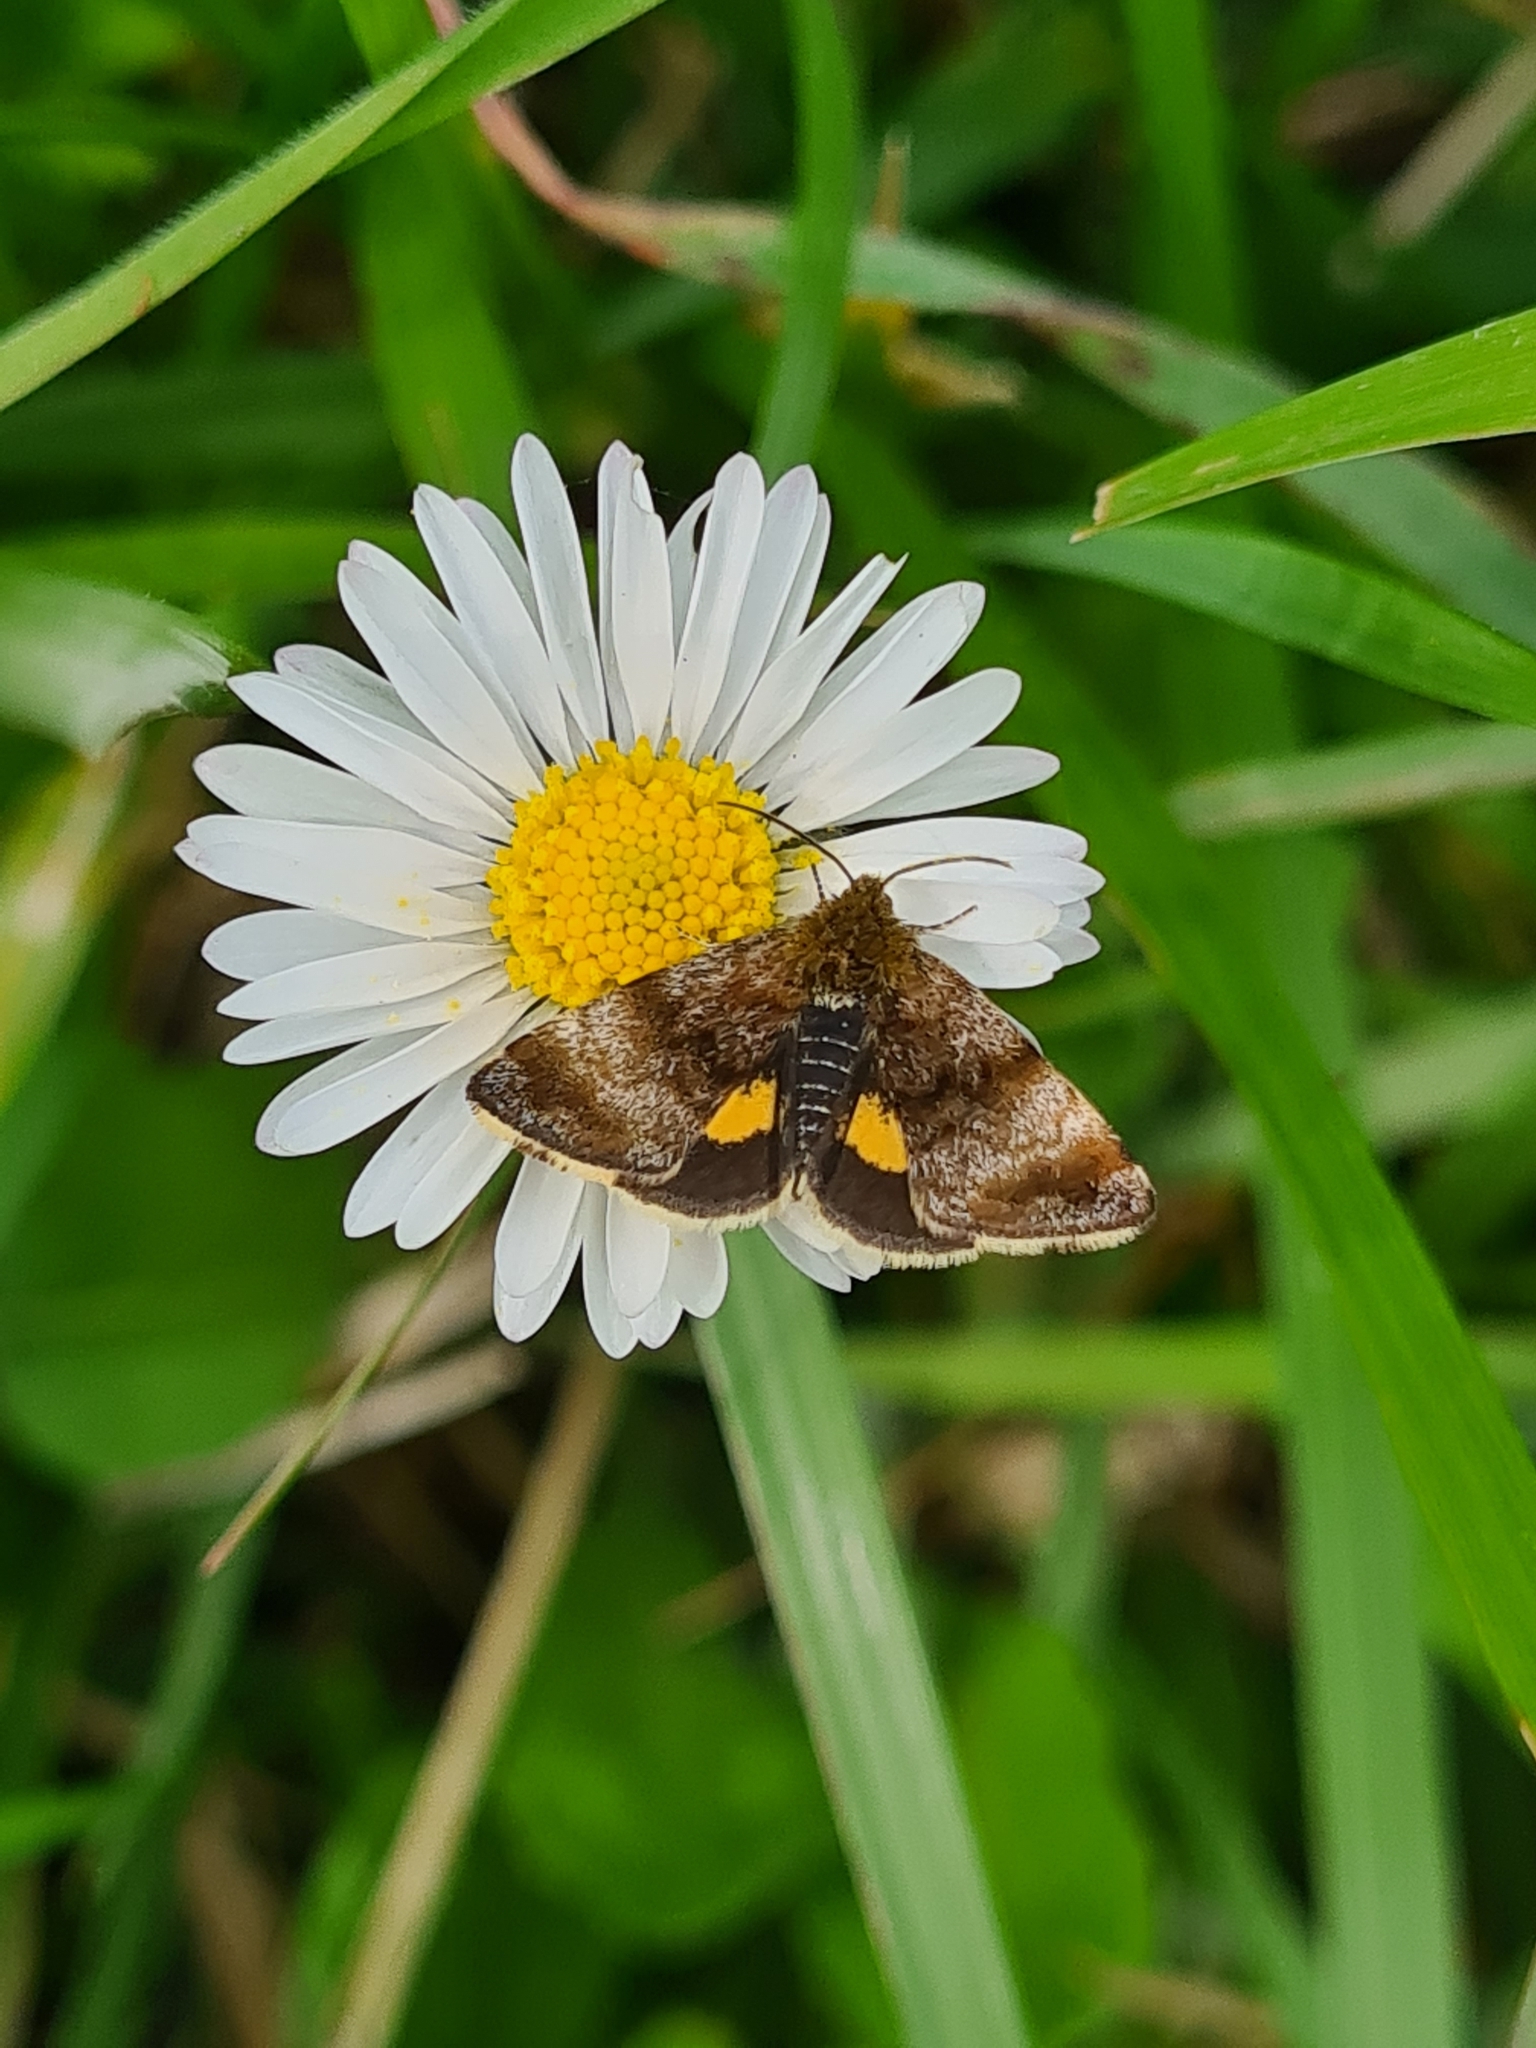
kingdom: Animalia
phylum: Arthropoda
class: Insecta
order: Lepidoptera
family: Noctuidae
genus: Panemeria
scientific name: Panemeria tenebrata
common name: Small yellow underwing
